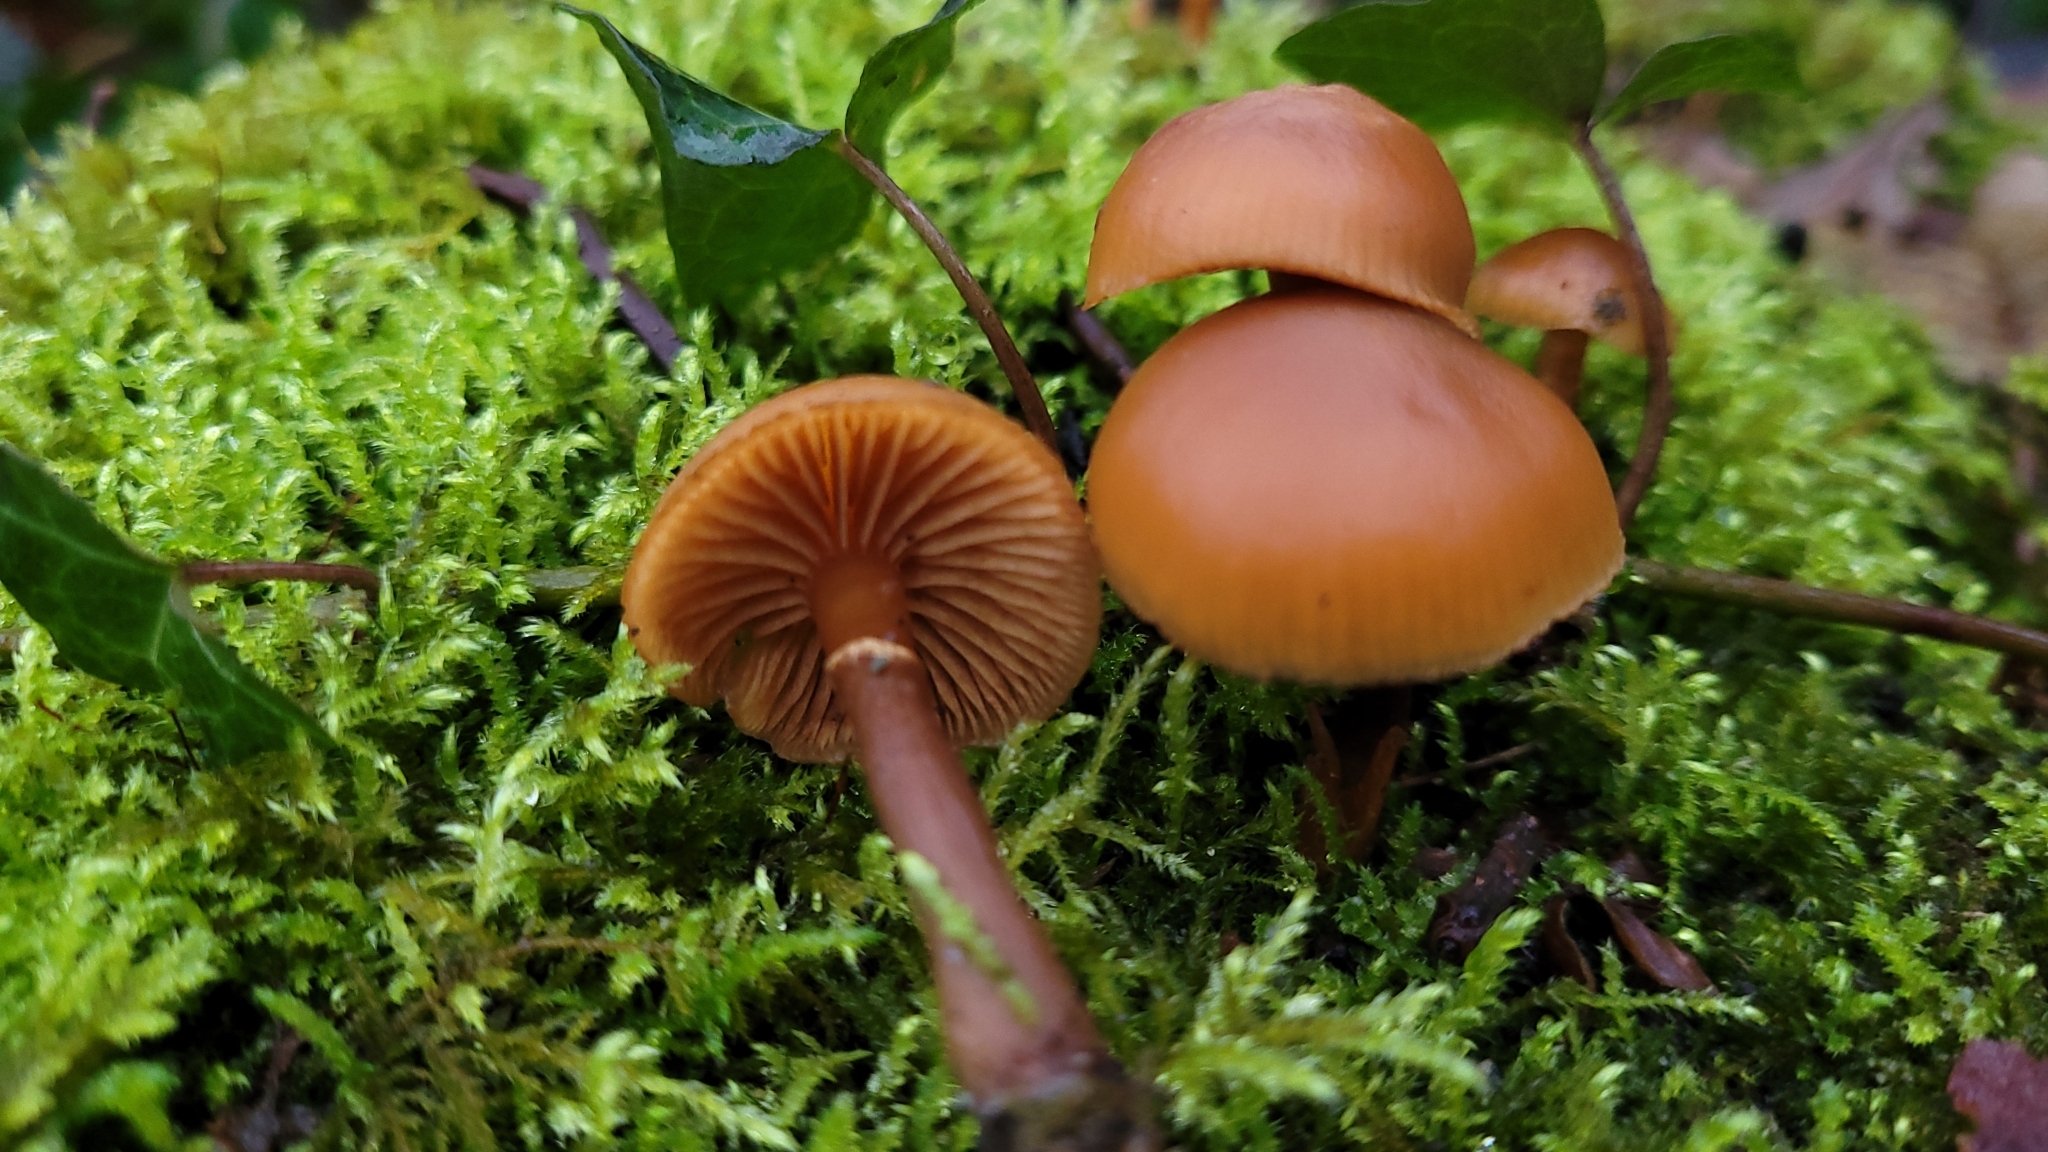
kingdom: Fungi
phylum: Basidiomycota
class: Agaricomycetes
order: Agaricales
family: Hymenogastraceae
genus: Galerina
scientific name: Galerina marginata
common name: Funeral bell
